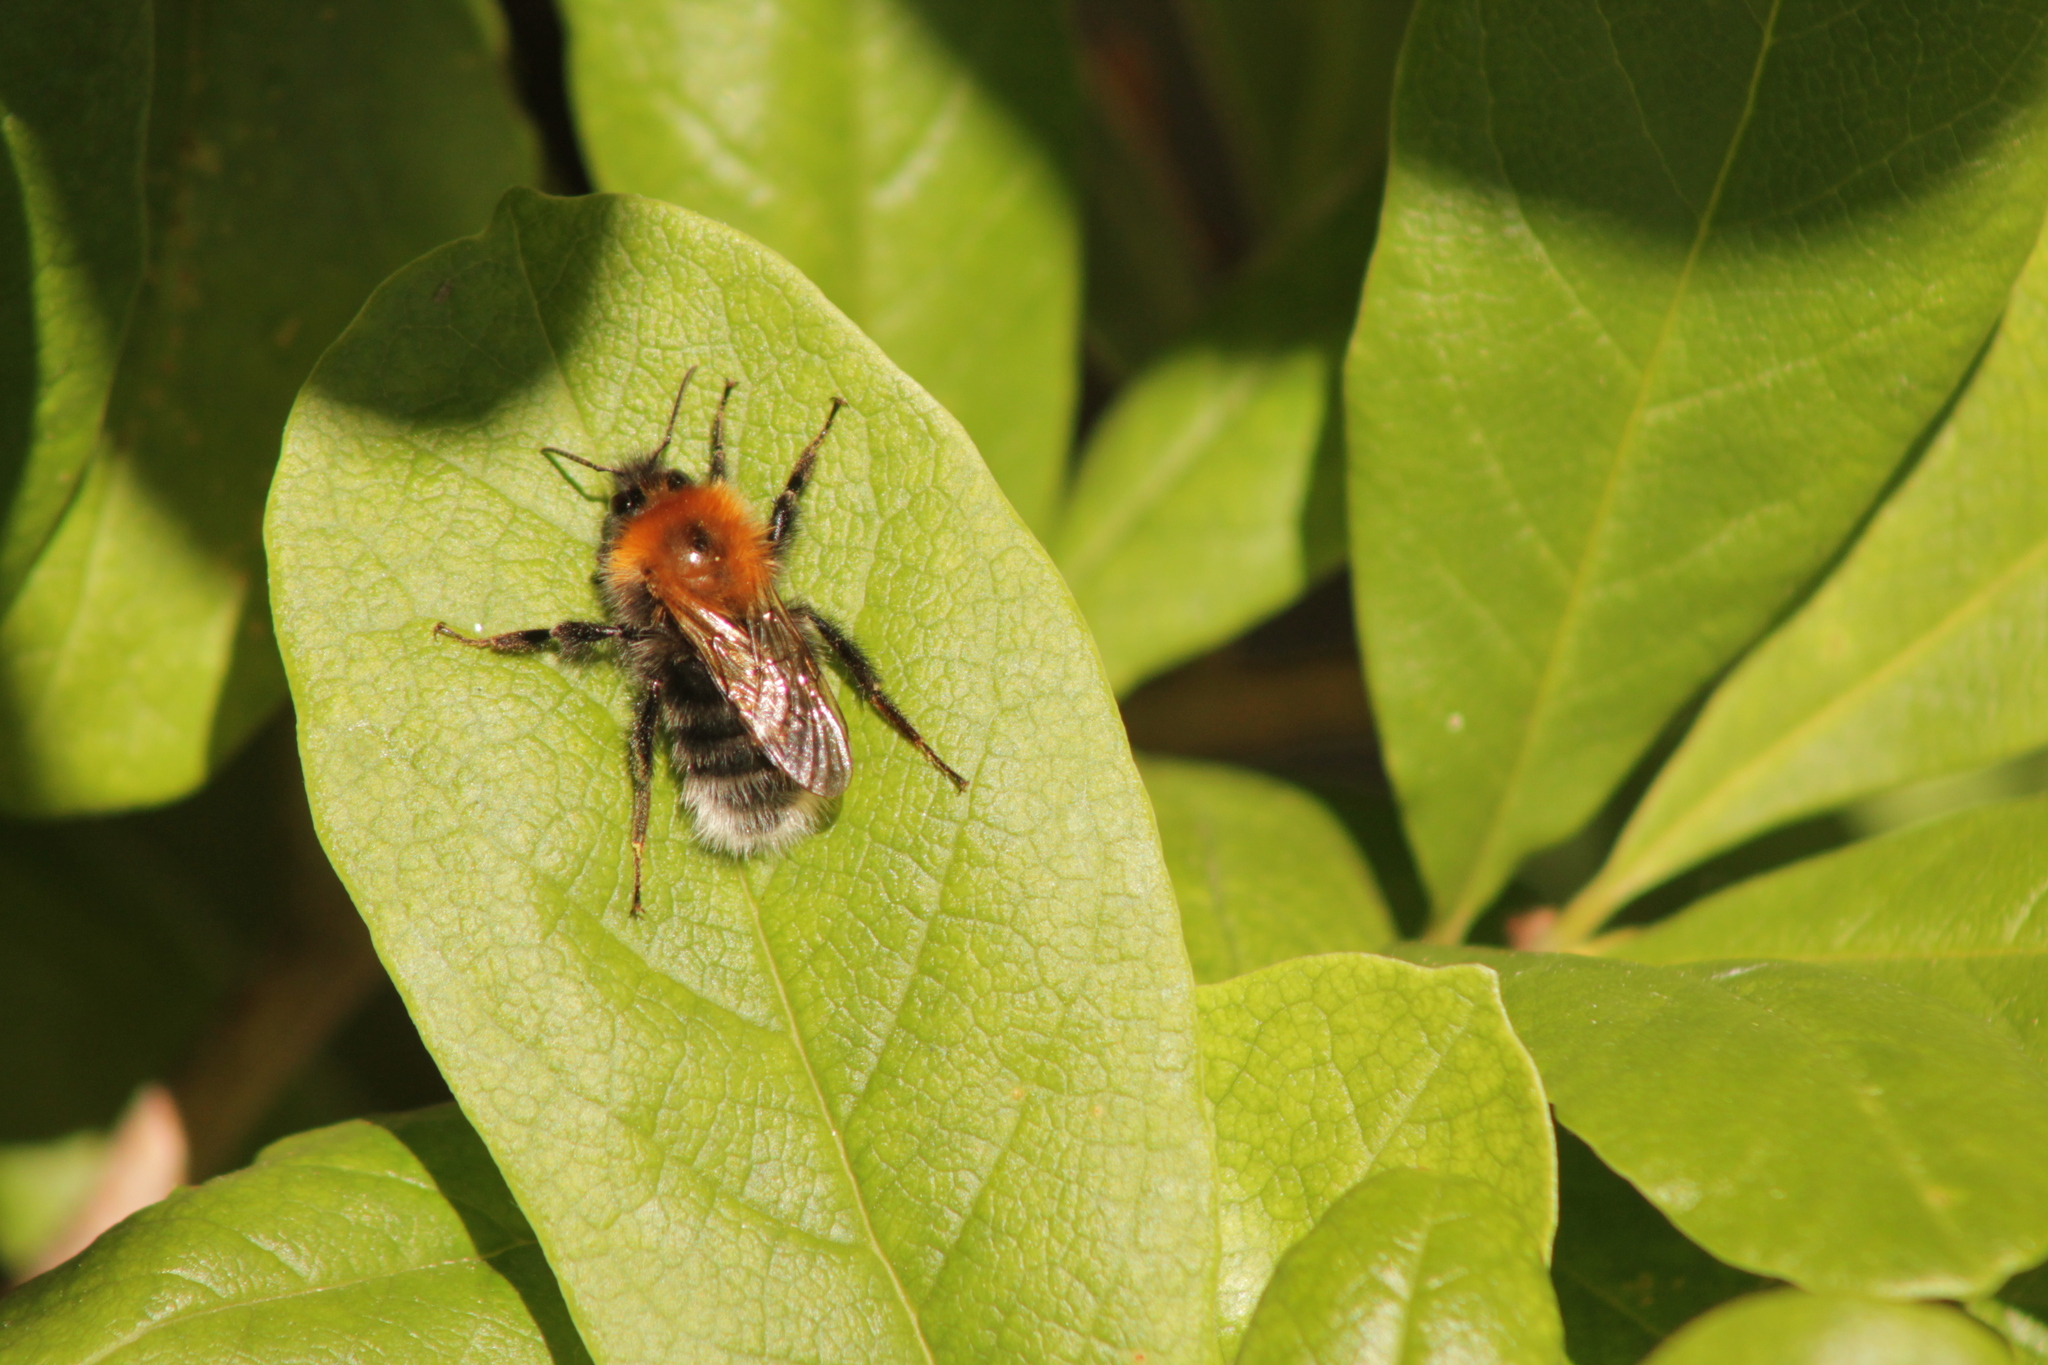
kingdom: Animalia
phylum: Arthropoda
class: Insecta
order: Hymenoptera
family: Apidae
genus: Bombus
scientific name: Bombus hypnorum
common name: New garden bumblebee
